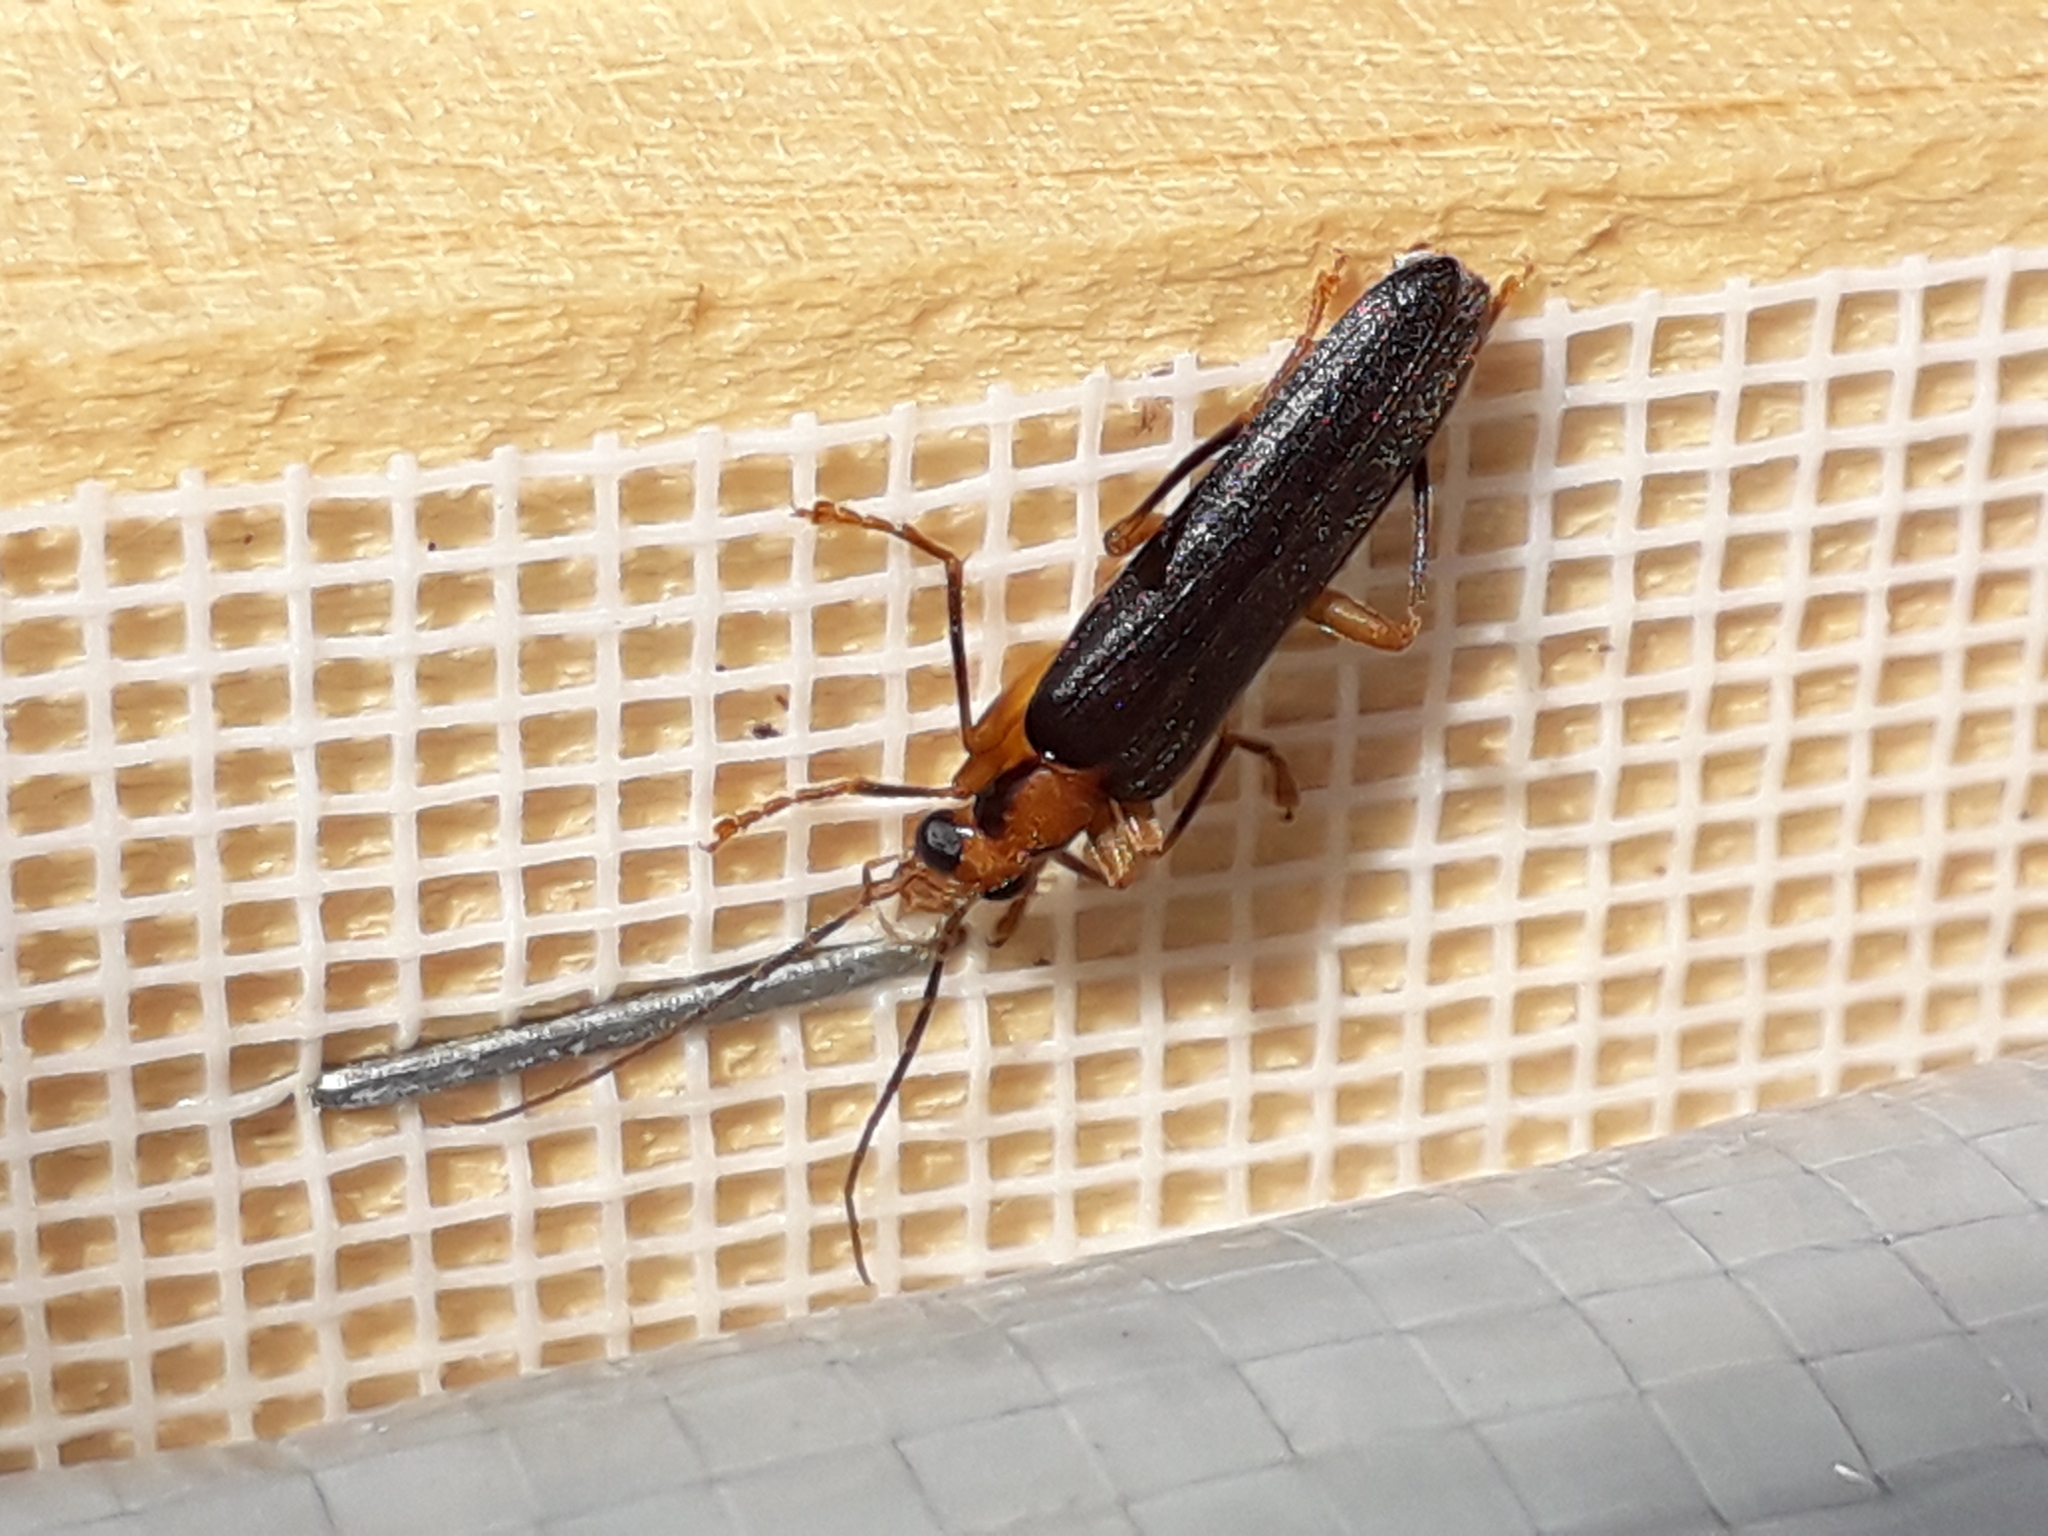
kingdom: Animalia
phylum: Arthropoda
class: Insecta
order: Coleoptera
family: Oedemeridae
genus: Nacerdes
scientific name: Nacerdes carniolica
